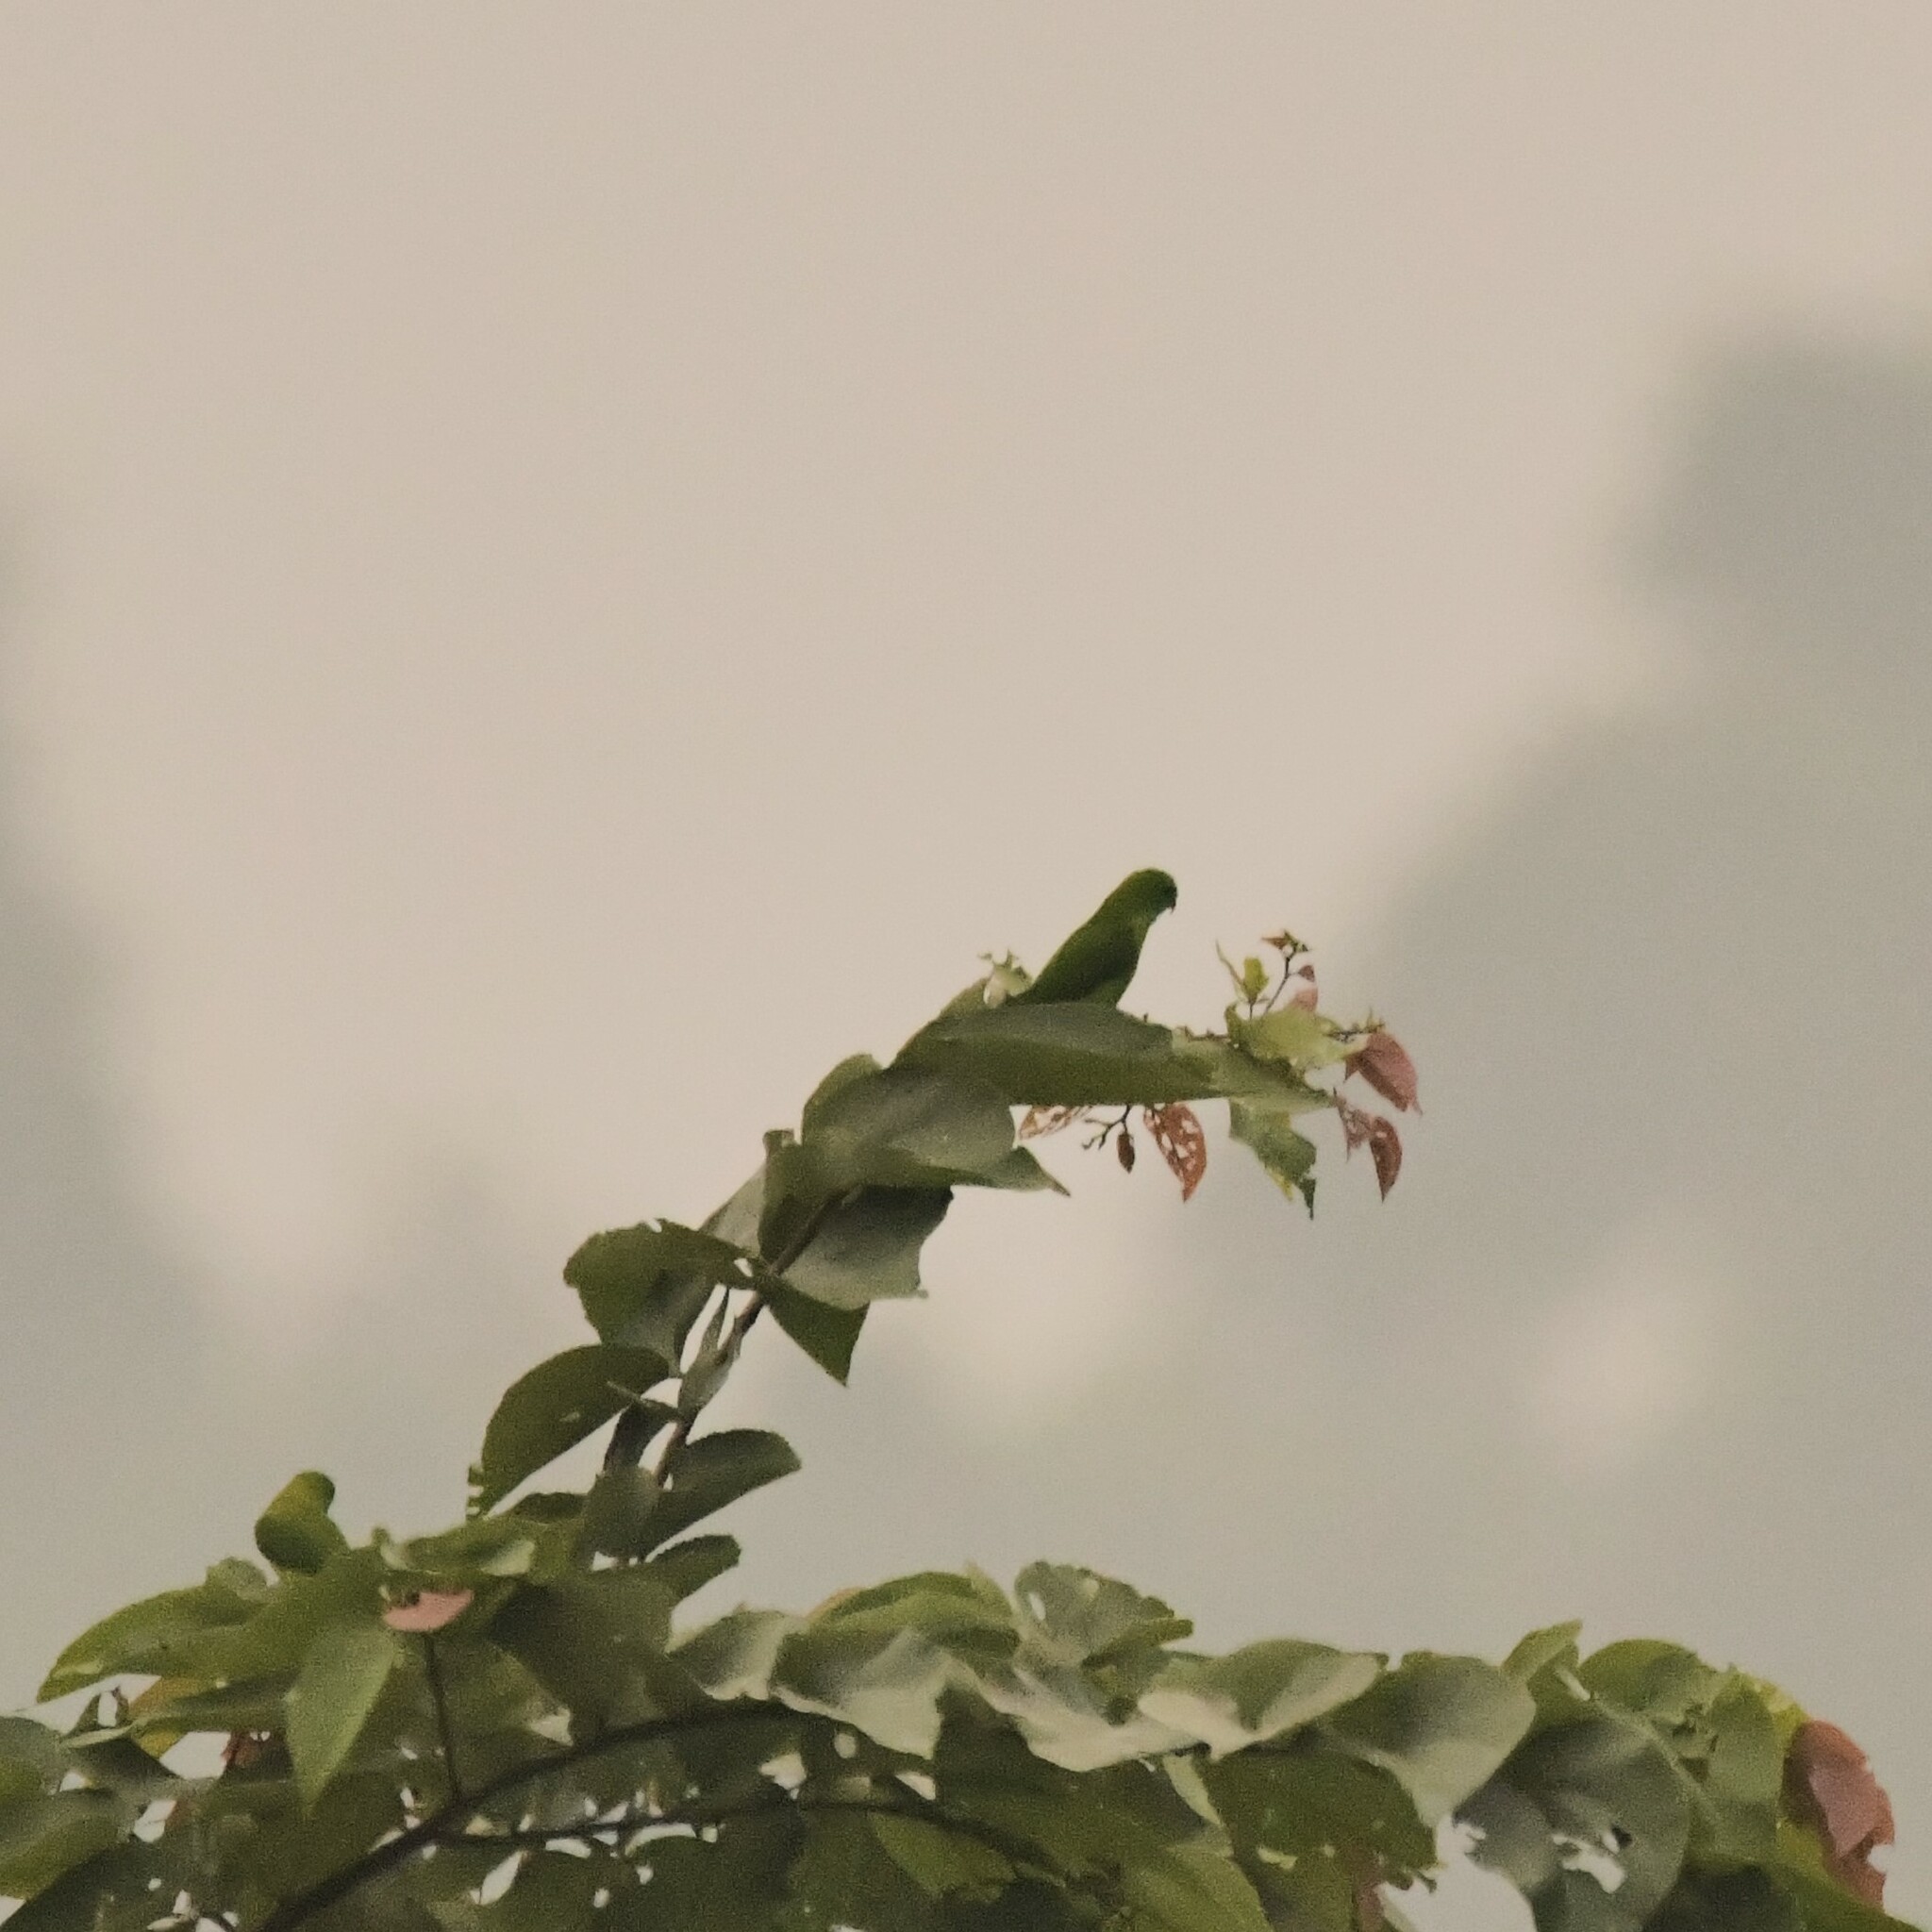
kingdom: Animalia
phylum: Chordata
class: Aves
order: Psittaciformes
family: Psittacidae
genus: Loriculus
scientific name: Loriculus vernalis
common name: Vernal hanging parrot
